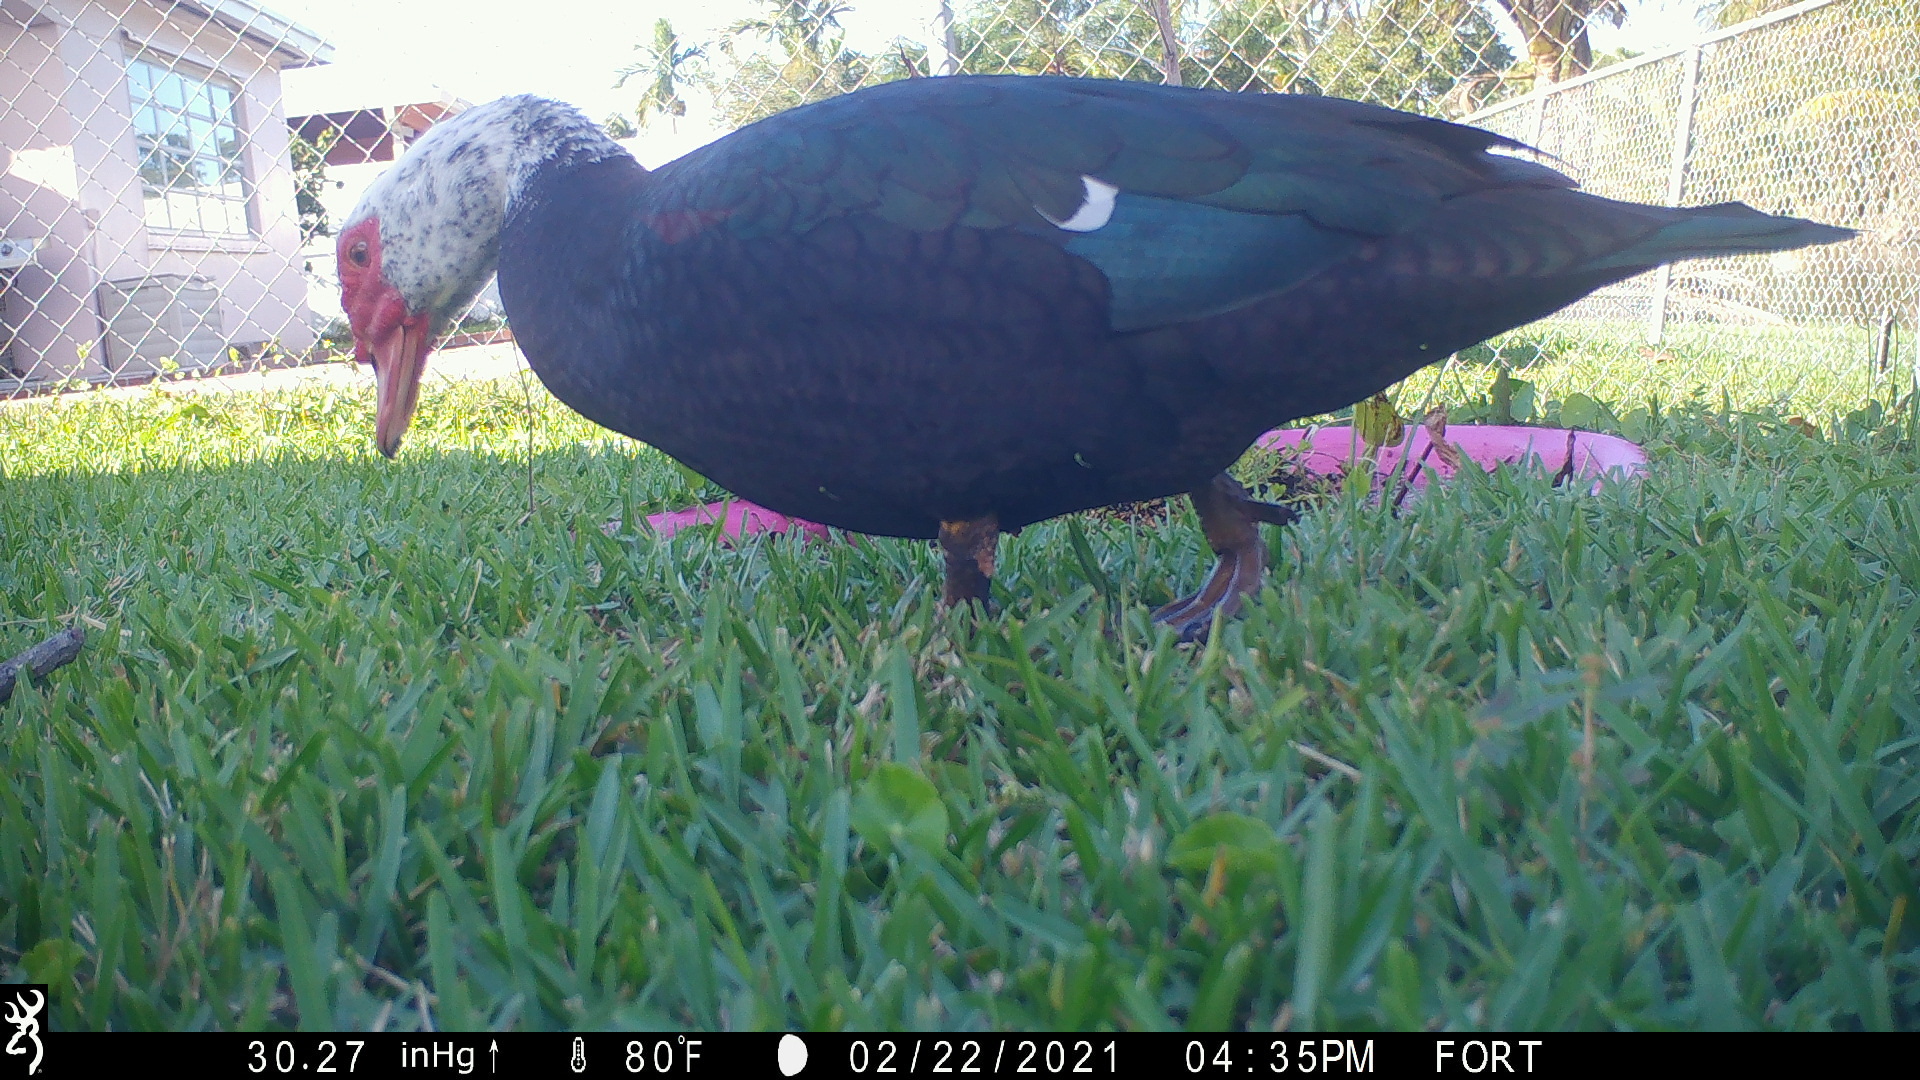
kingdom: Animalia
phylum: Chordata
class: Aves
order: Anseriformes
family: Anatidae
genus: Cairina
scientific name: Cairina moschata
